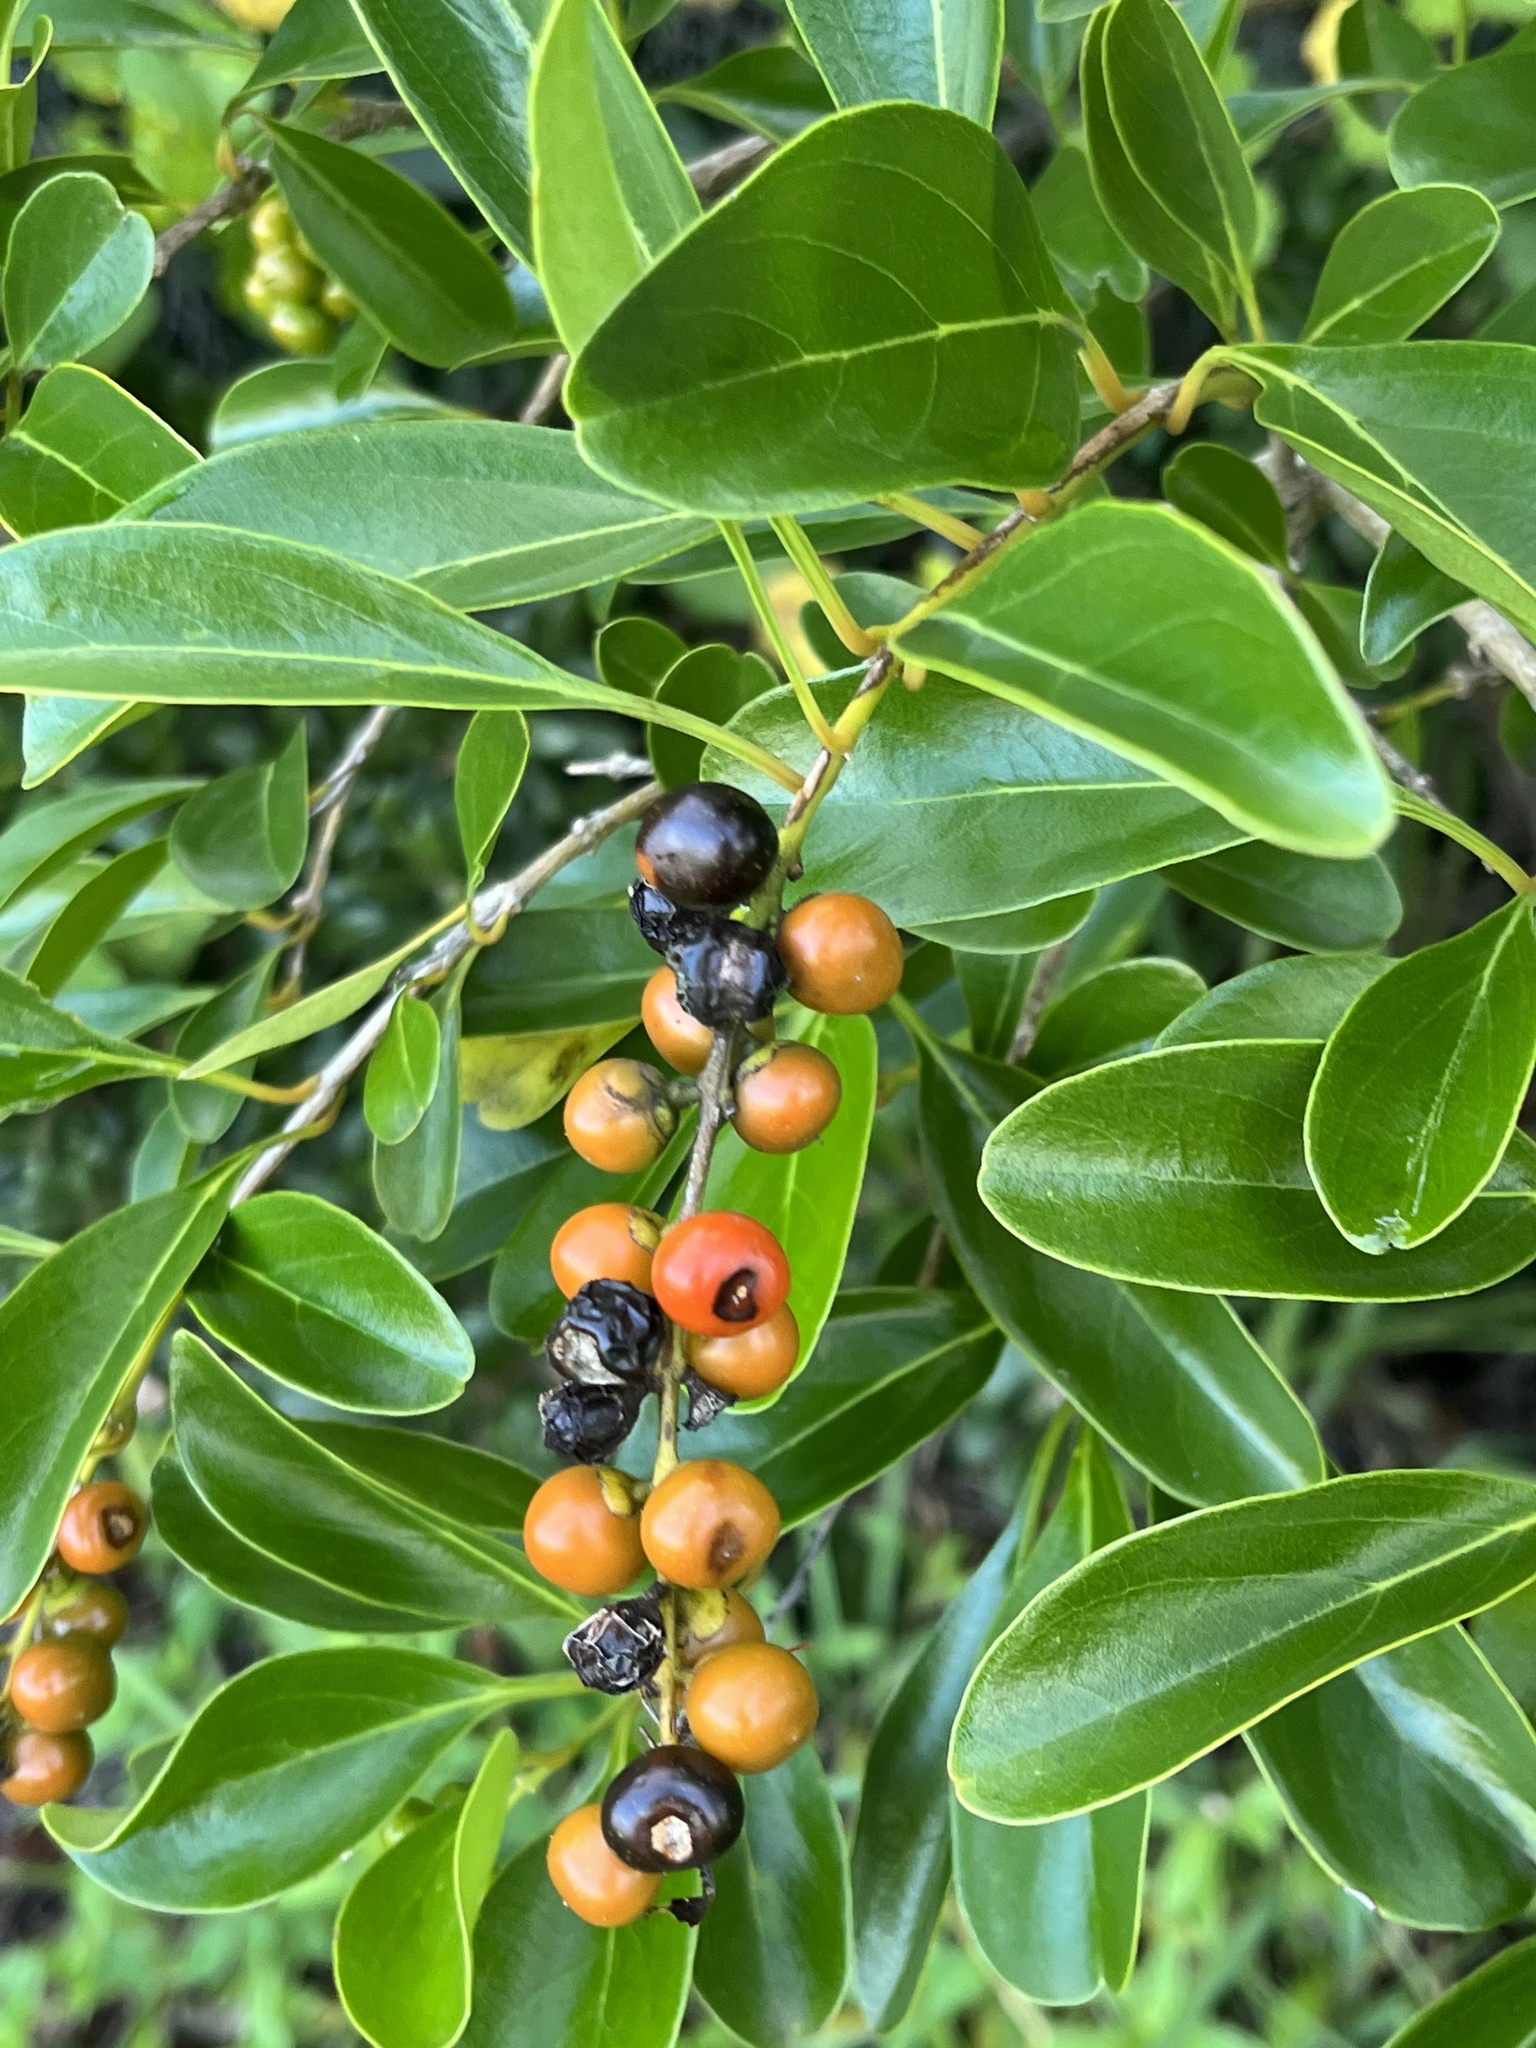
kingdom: Plantae
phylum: Tracheophyta
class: Magnoliopsida
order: Lamiales
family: Verbenaceae
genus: Citharexylum
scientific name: Citharexylum spinosum
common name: Fiddlewood
